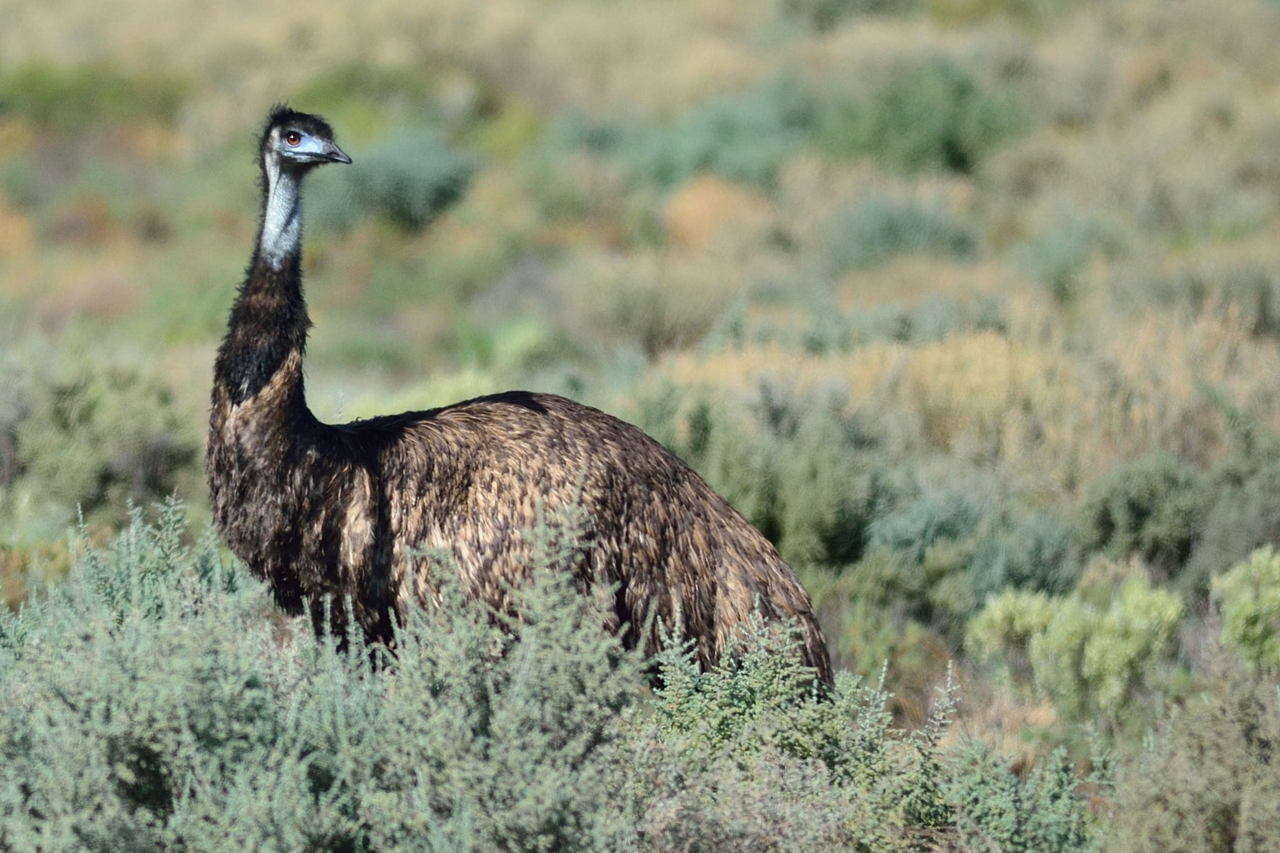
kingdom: Animalia
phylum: Chordata
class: Aves
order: Casuariiformes
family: Dromaiidae
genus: Dromaius
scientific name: Dromaius novaehollandiae
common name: Emu
